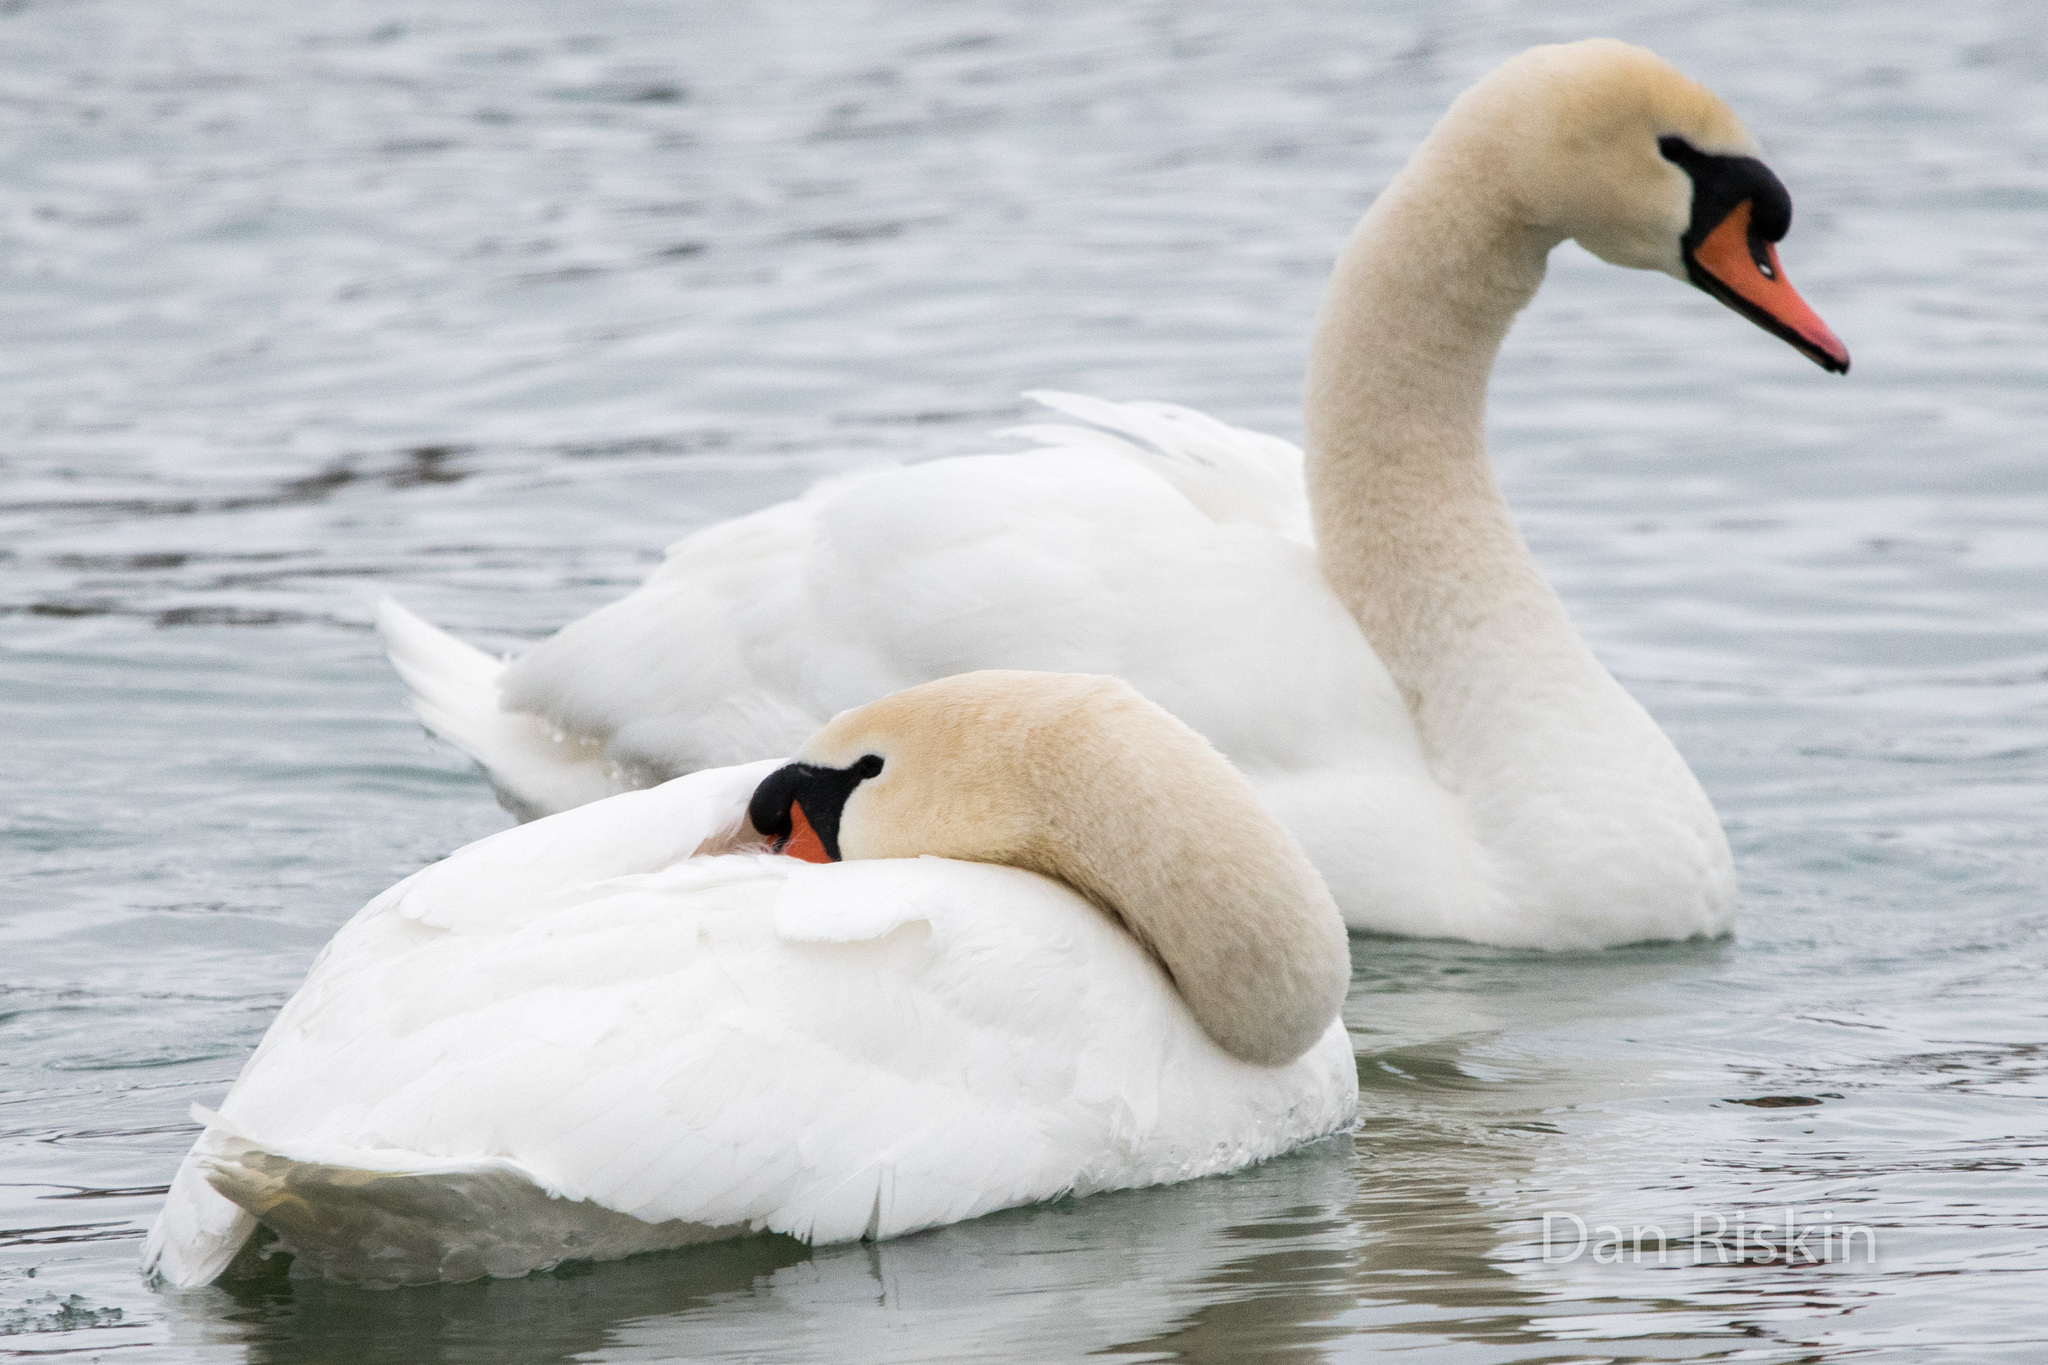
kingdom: Animalia
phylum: Chordata
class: Aves
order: Anseriformes
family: Anatidae
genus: Cygnus
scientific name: Cygnus olor
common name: Mute swan
